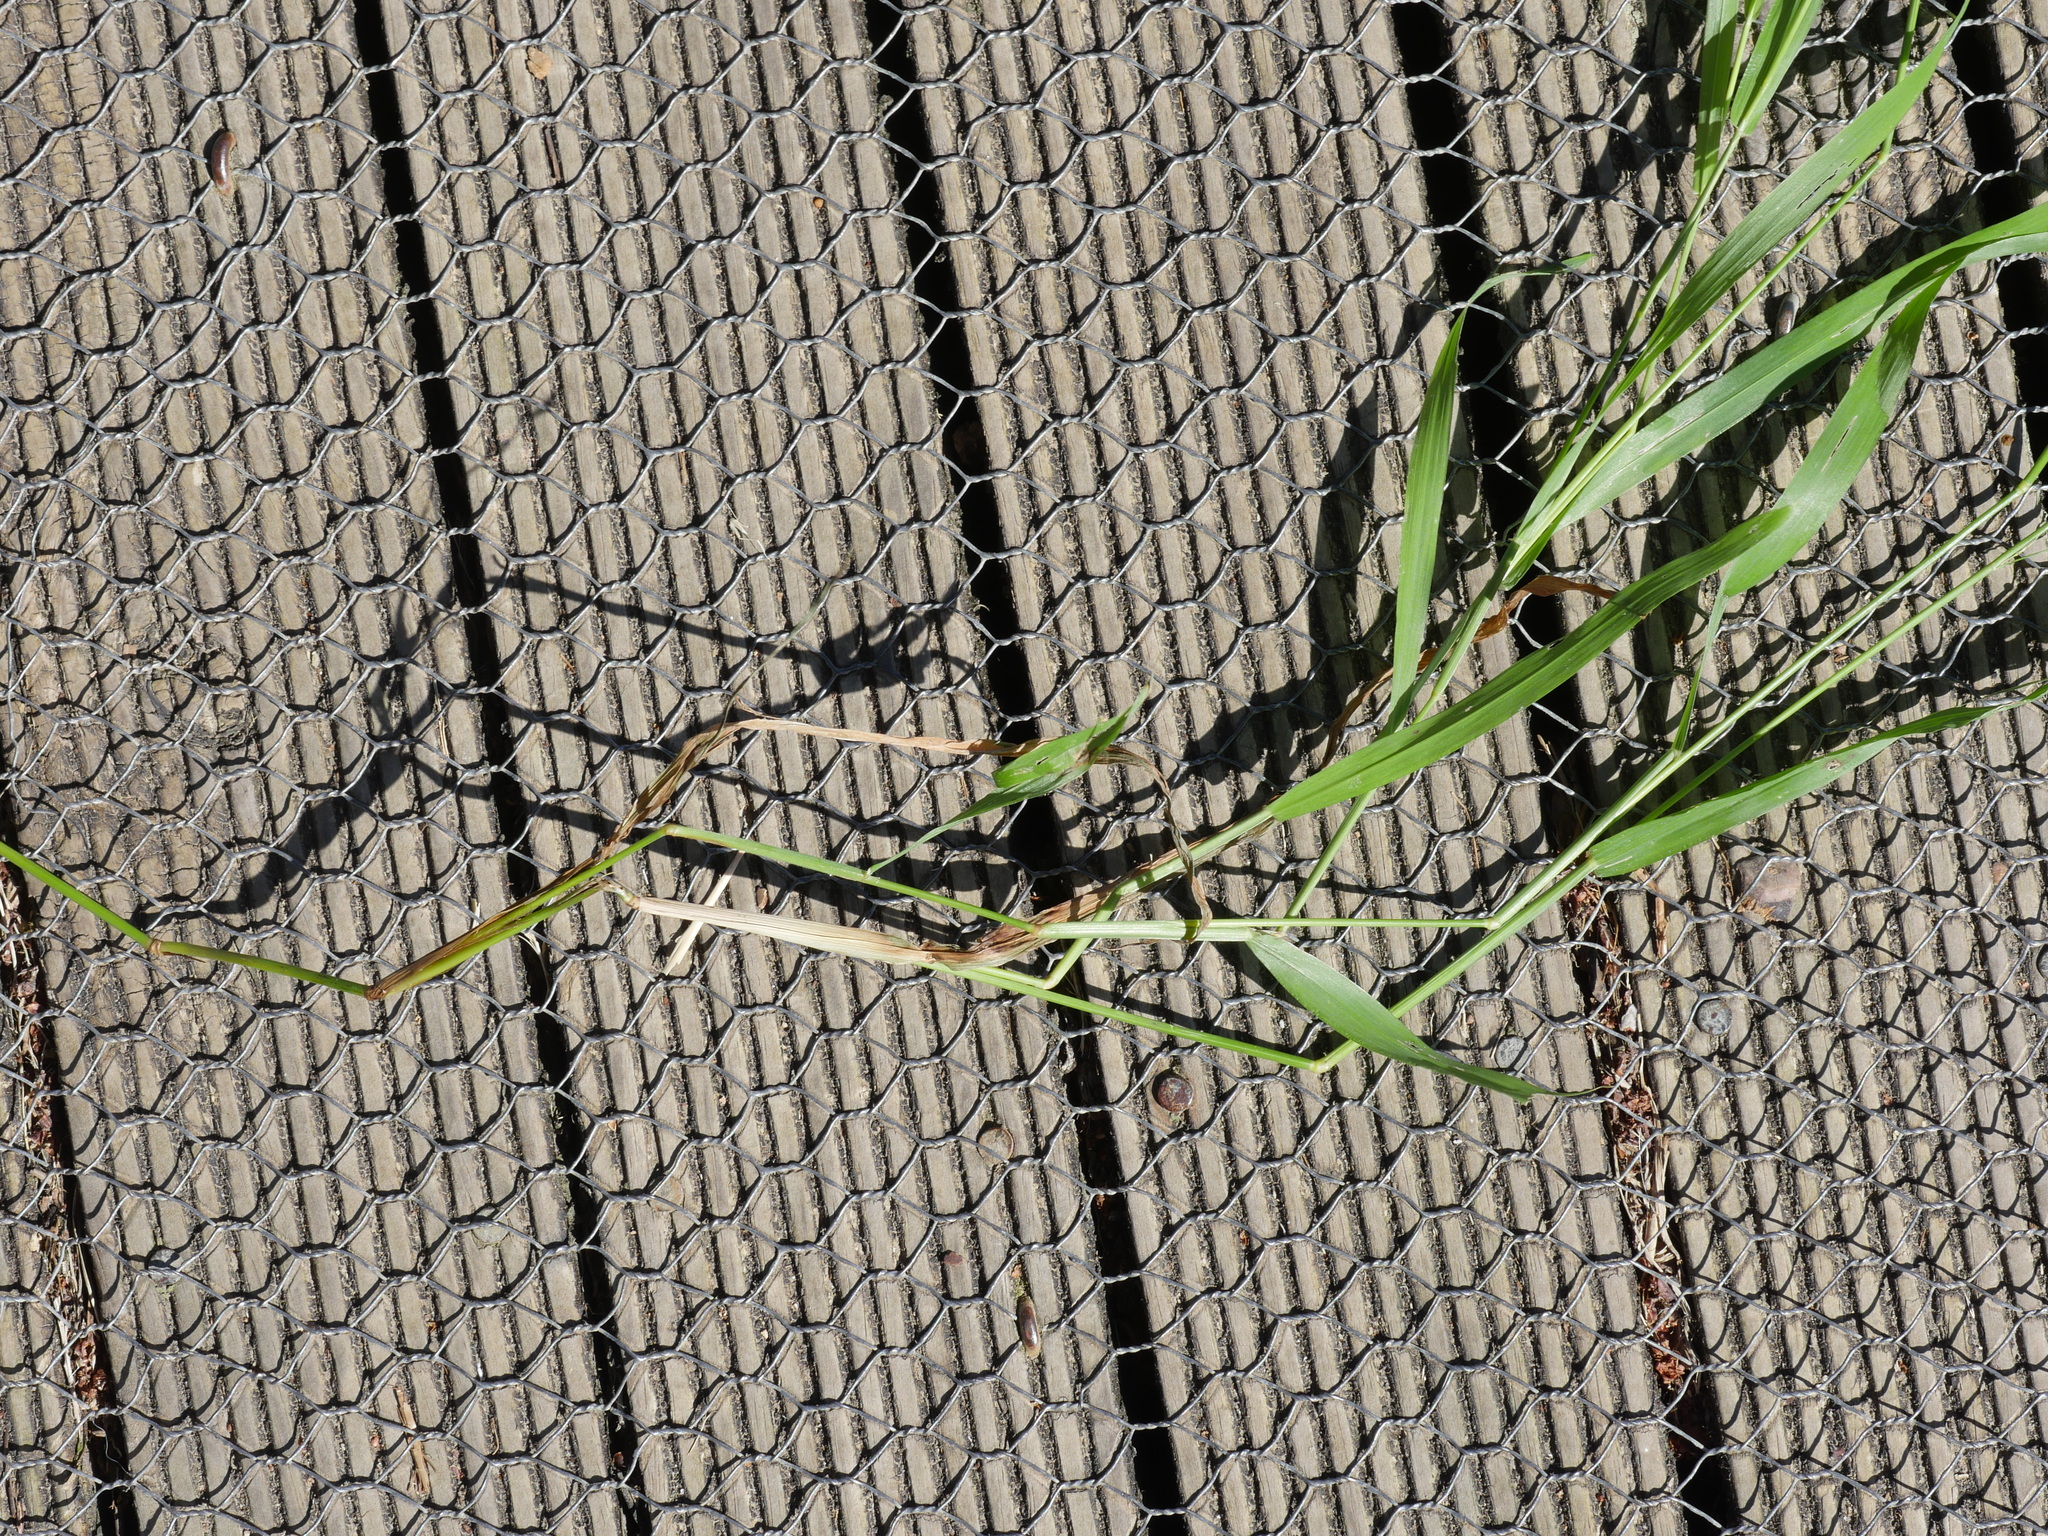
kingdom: Plantae
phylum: Tracheophyta
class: Liliopsida
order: Poales
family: Poaceae
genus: Ehrharta
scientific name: Ehrharta erecta
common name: Panic veldtgrass
